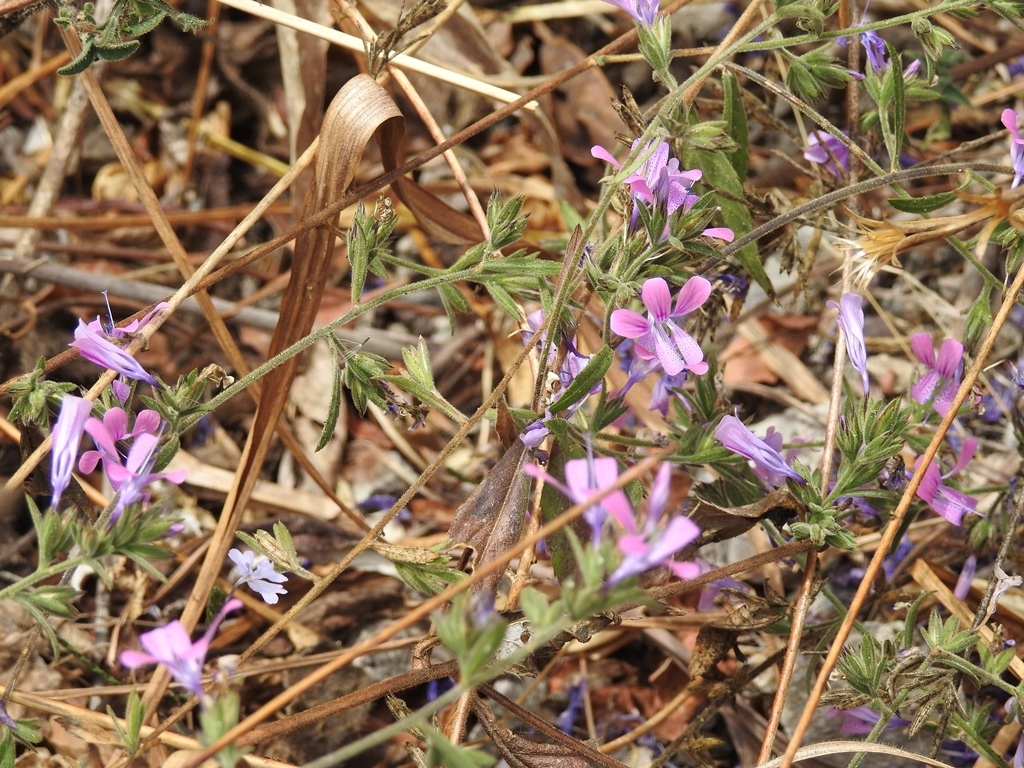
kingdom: Plantae
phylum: Tracheophyta
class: Magnoliopsida
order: Ericales
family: Polemoniaceae
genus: Loeselia
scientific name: Loeselia glandulosa
